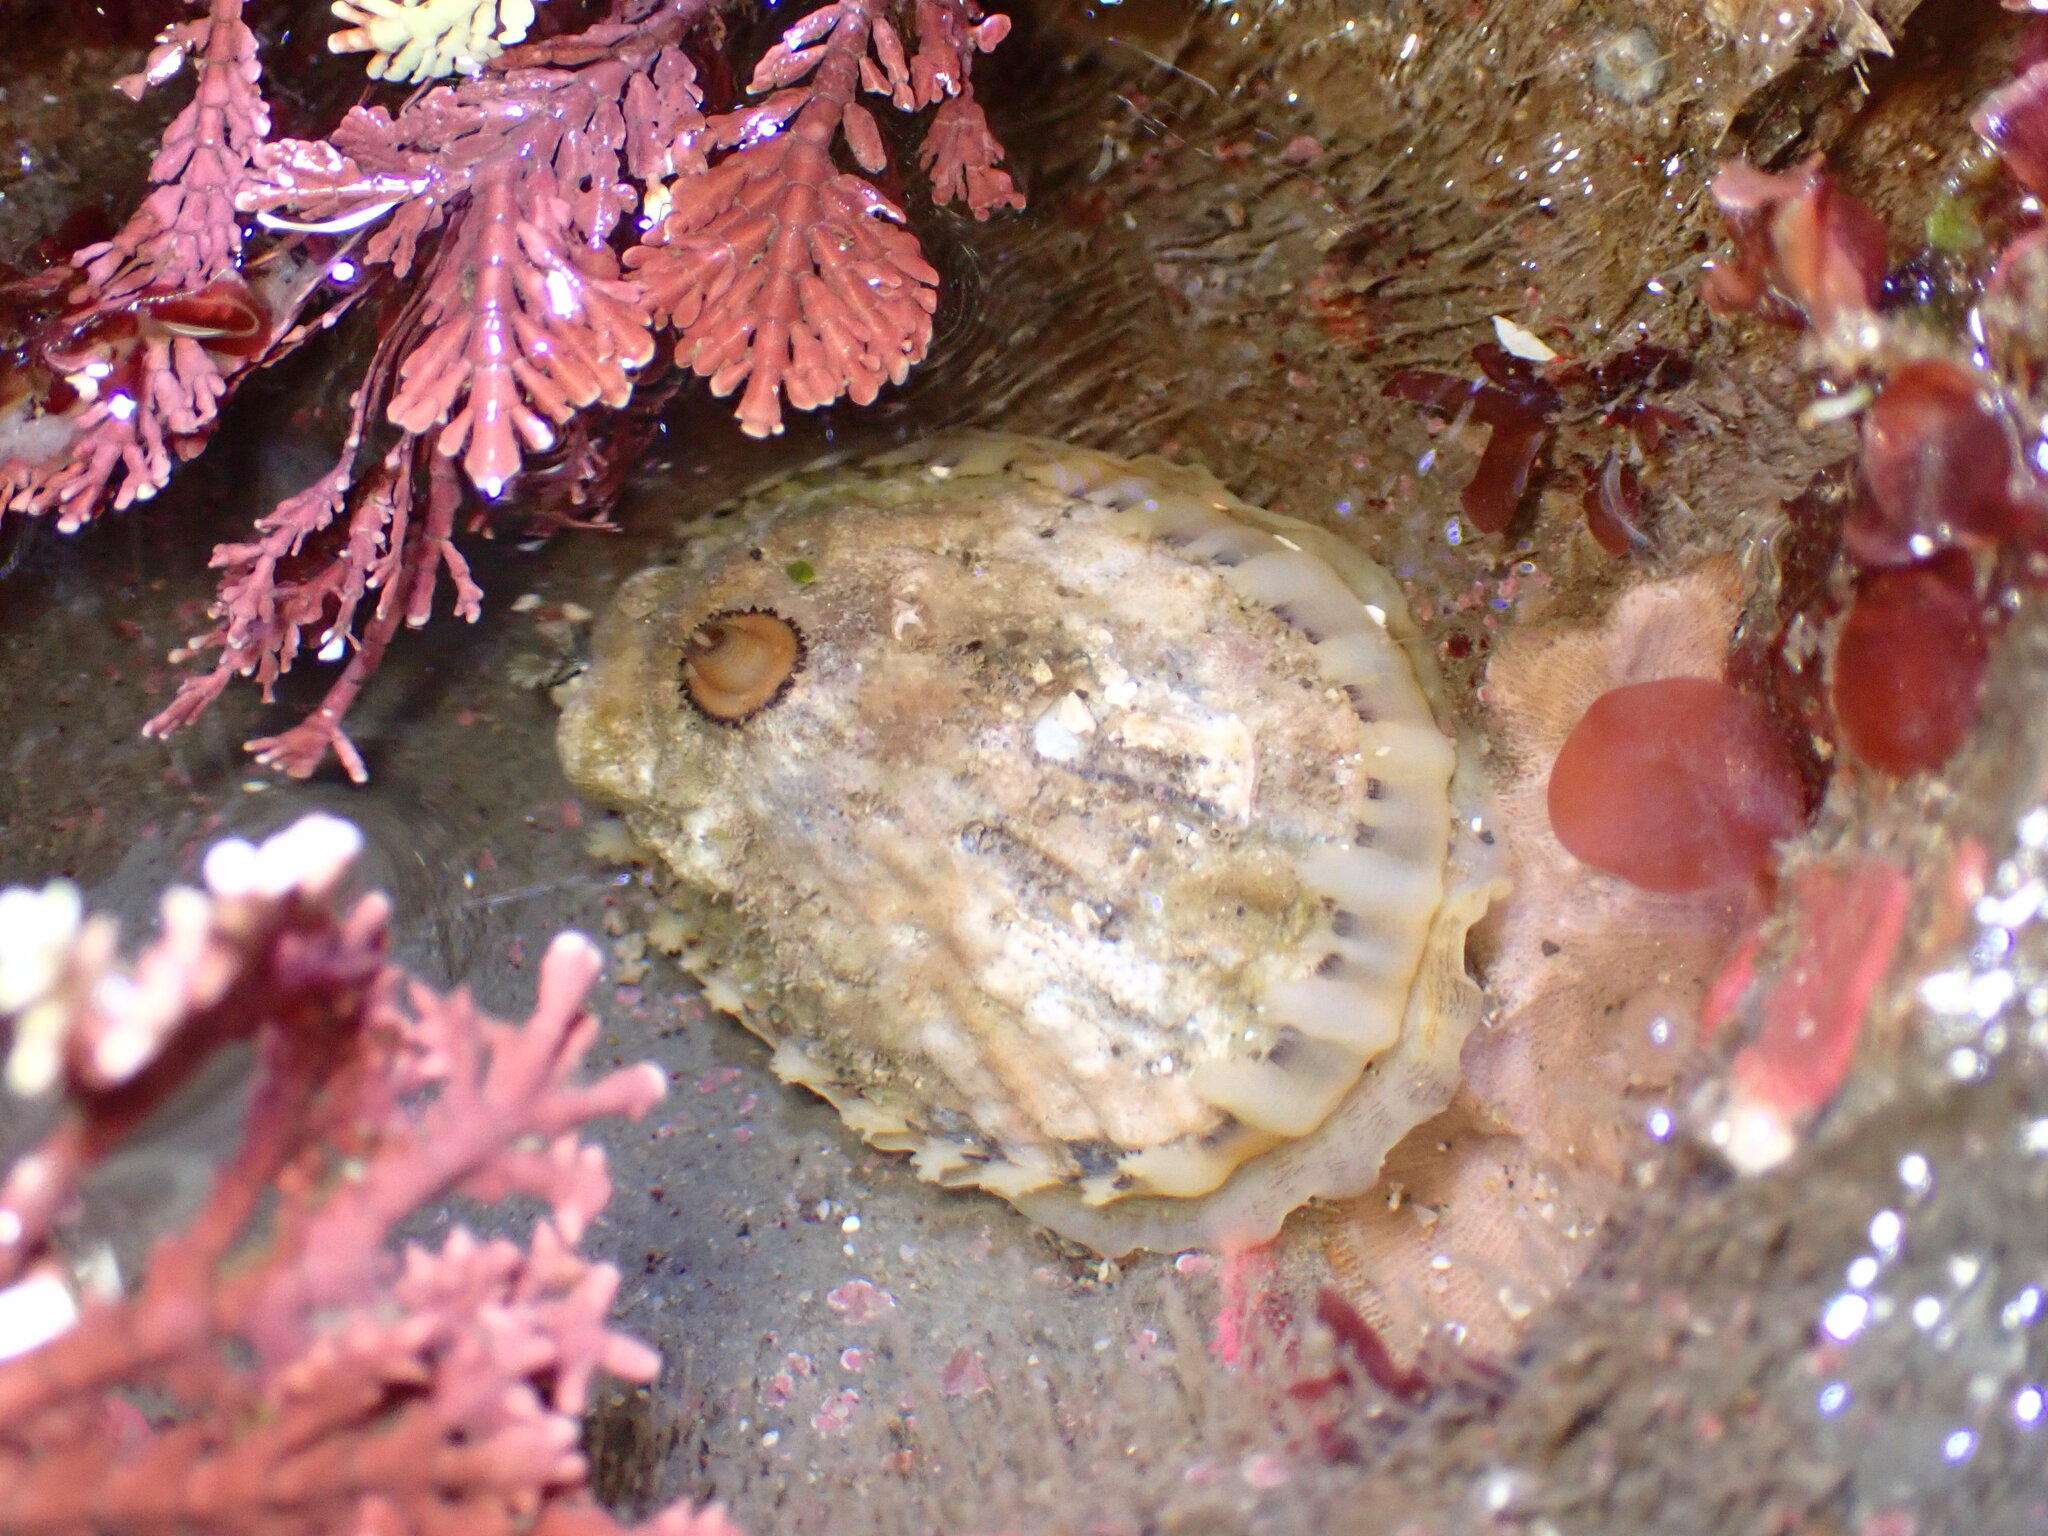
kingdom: Animalia
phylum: Mollusca
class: Gastropoda
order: Lepetellida
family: Fissurellidae
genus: Diodora
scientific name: Diodora aspera
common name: Rough keyhole limpet
